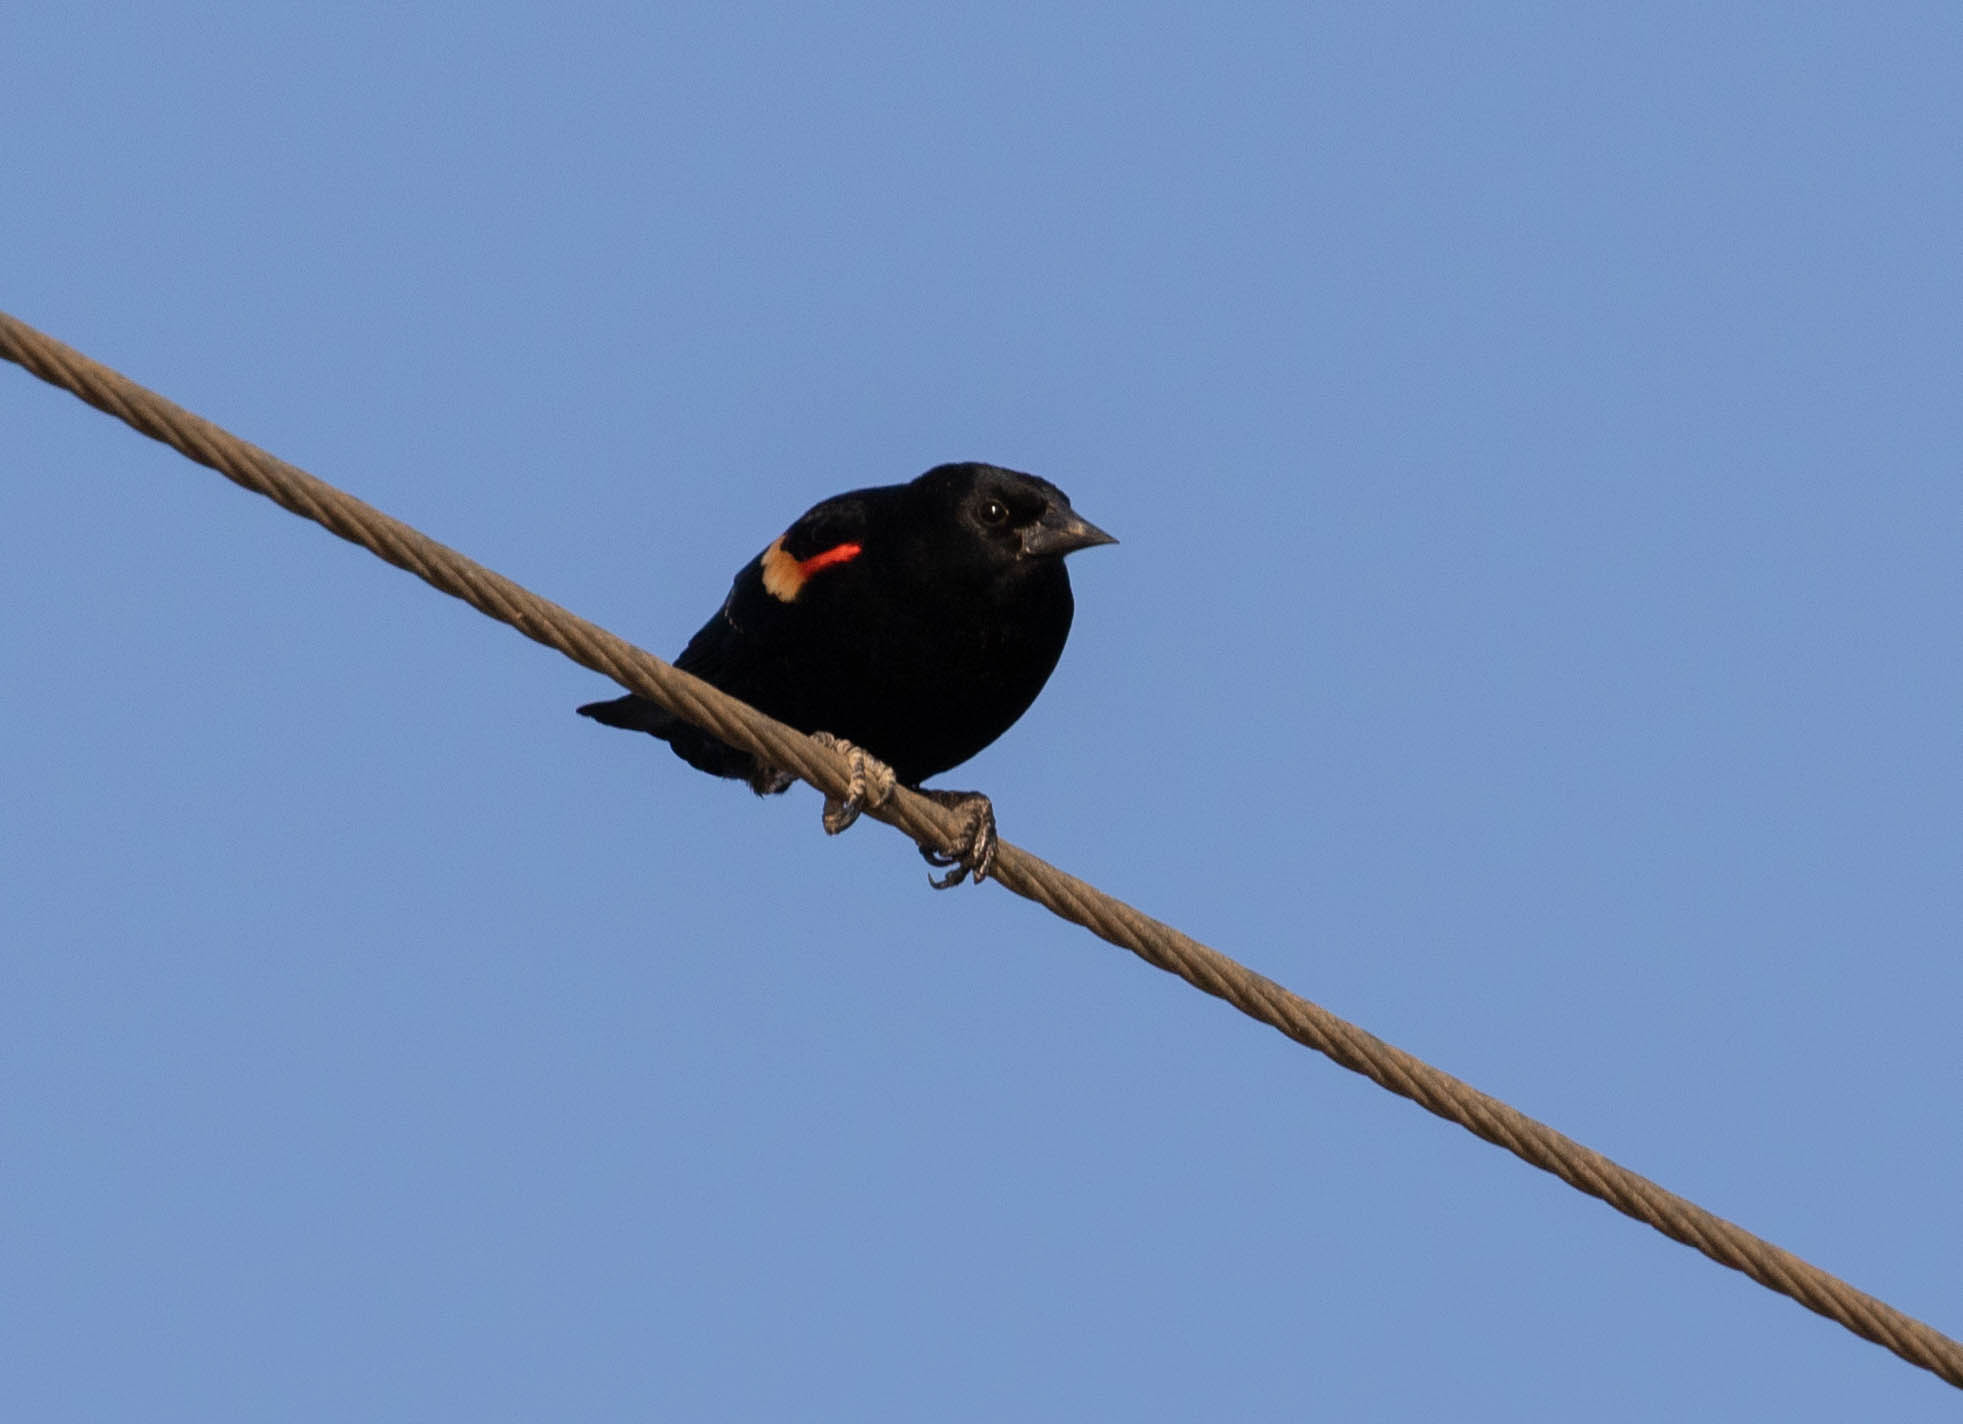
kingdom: Animalia
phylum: Chordata
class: Aves
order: Passeriformes
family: Icteridae
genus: Agelaius
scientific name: Agelaius phoeniceus
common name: Red-winged blackbird
